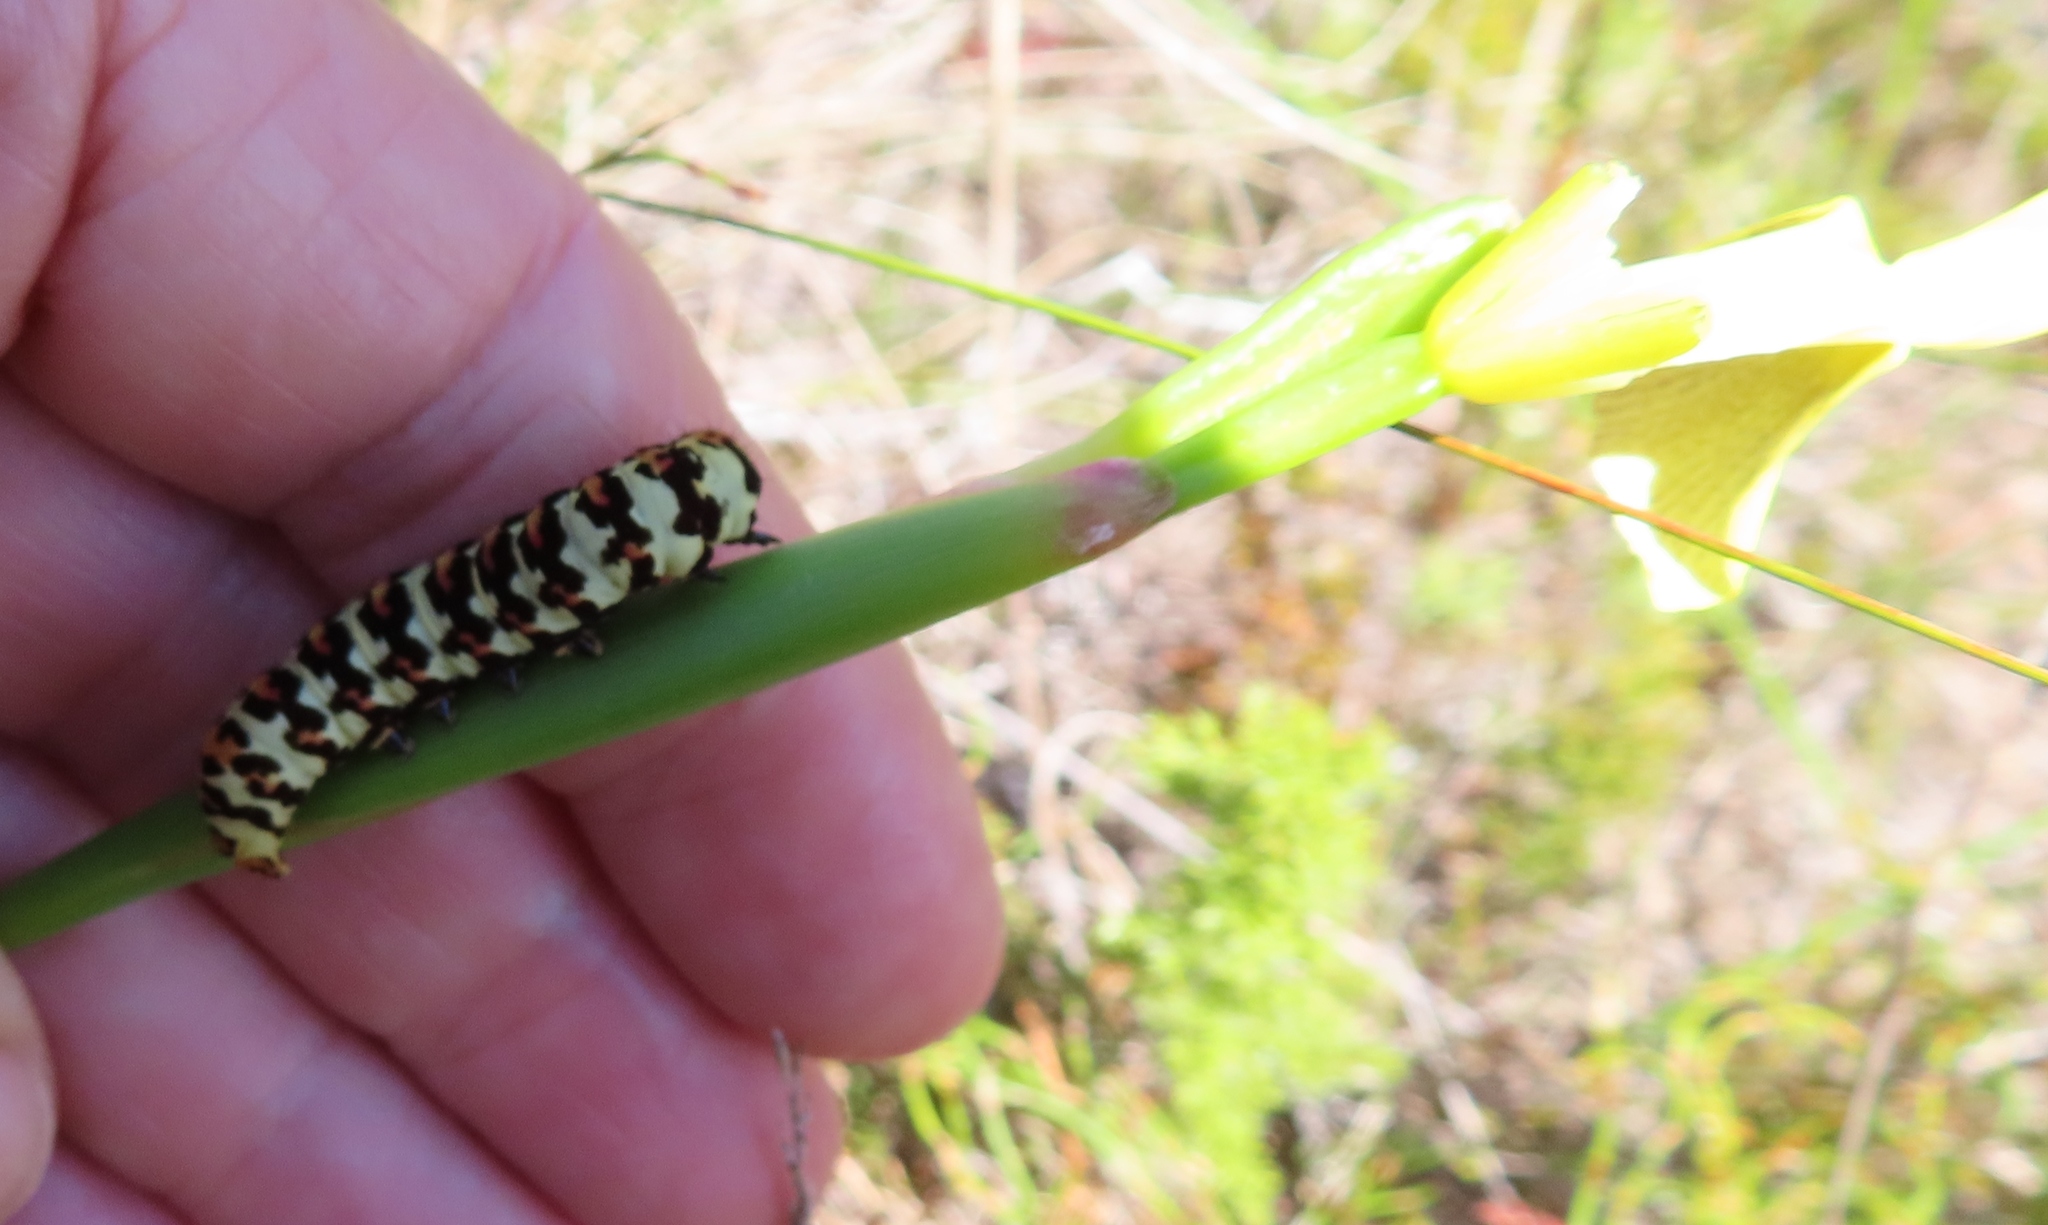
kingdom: Animalia
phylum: Arthropoda
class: Insecta
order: Lepidoptera
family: Noctuidae
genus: Diaphone
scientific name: Diaphone eumela
